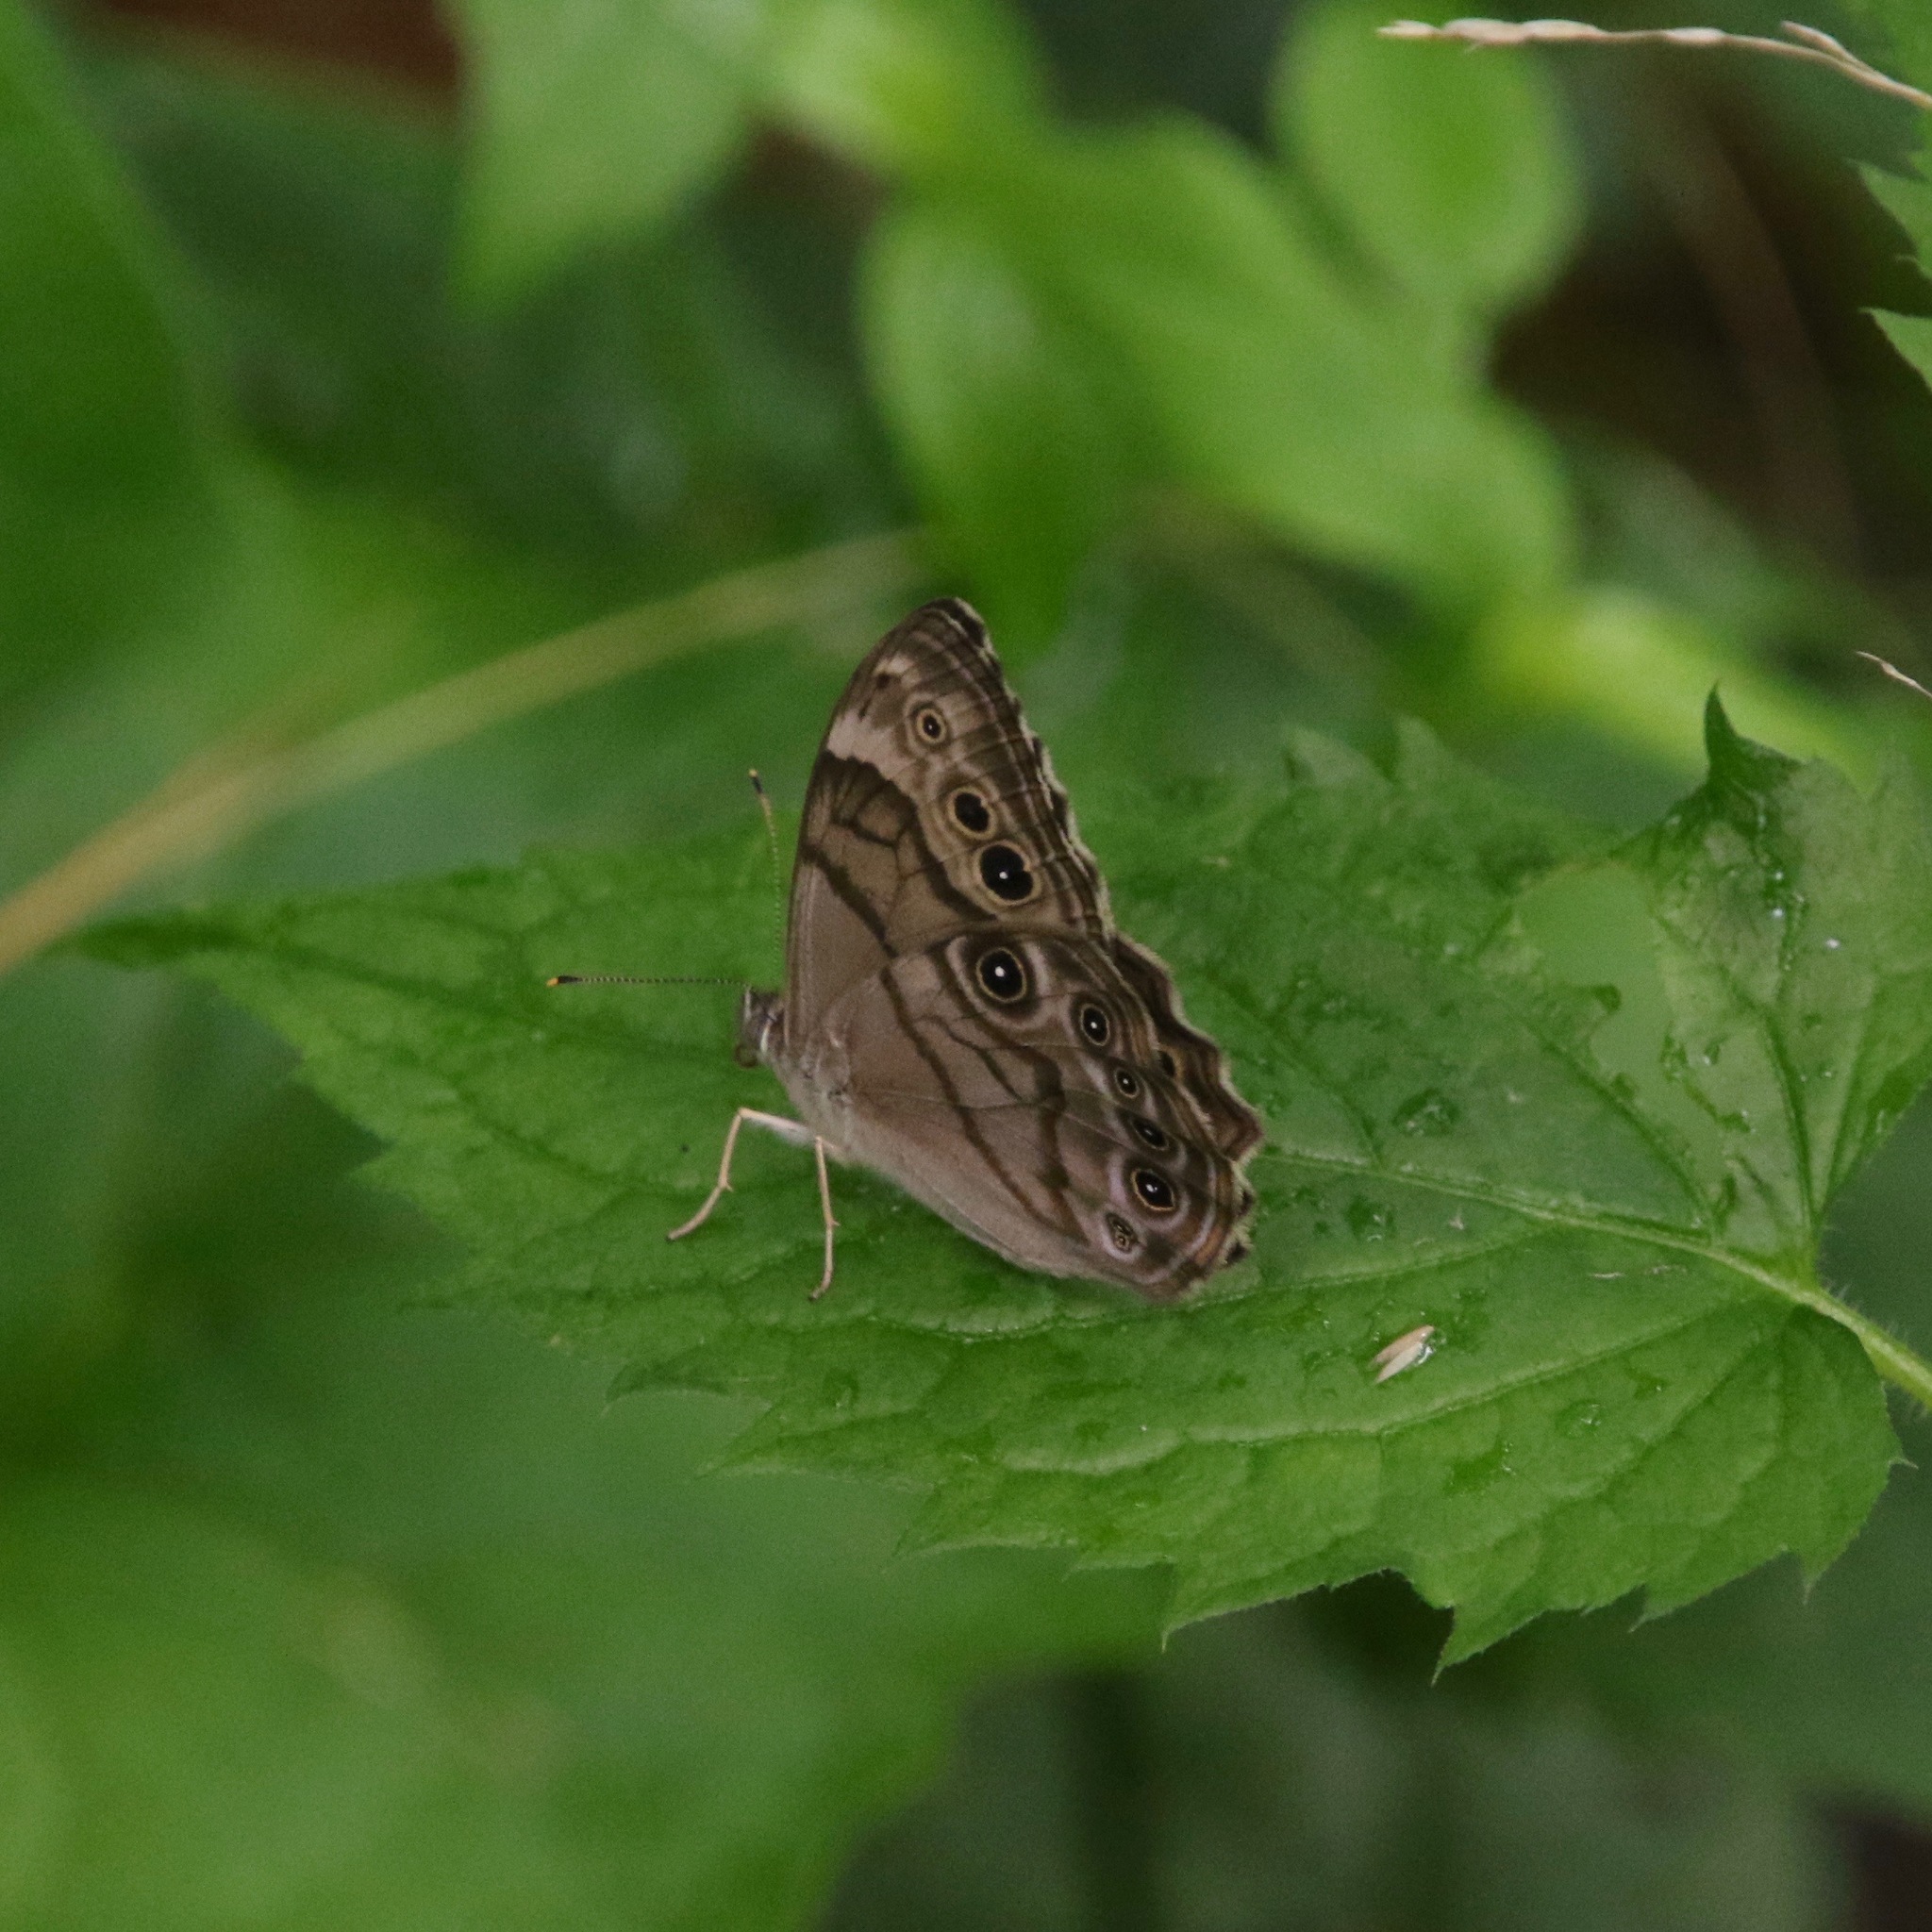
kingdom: Animalia
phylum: Arthropoda
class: Insecta
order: Lepidoptera
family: Nymphalidae
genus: Lethe
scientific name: Lethe anthedon
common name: Northern pearly-eye
